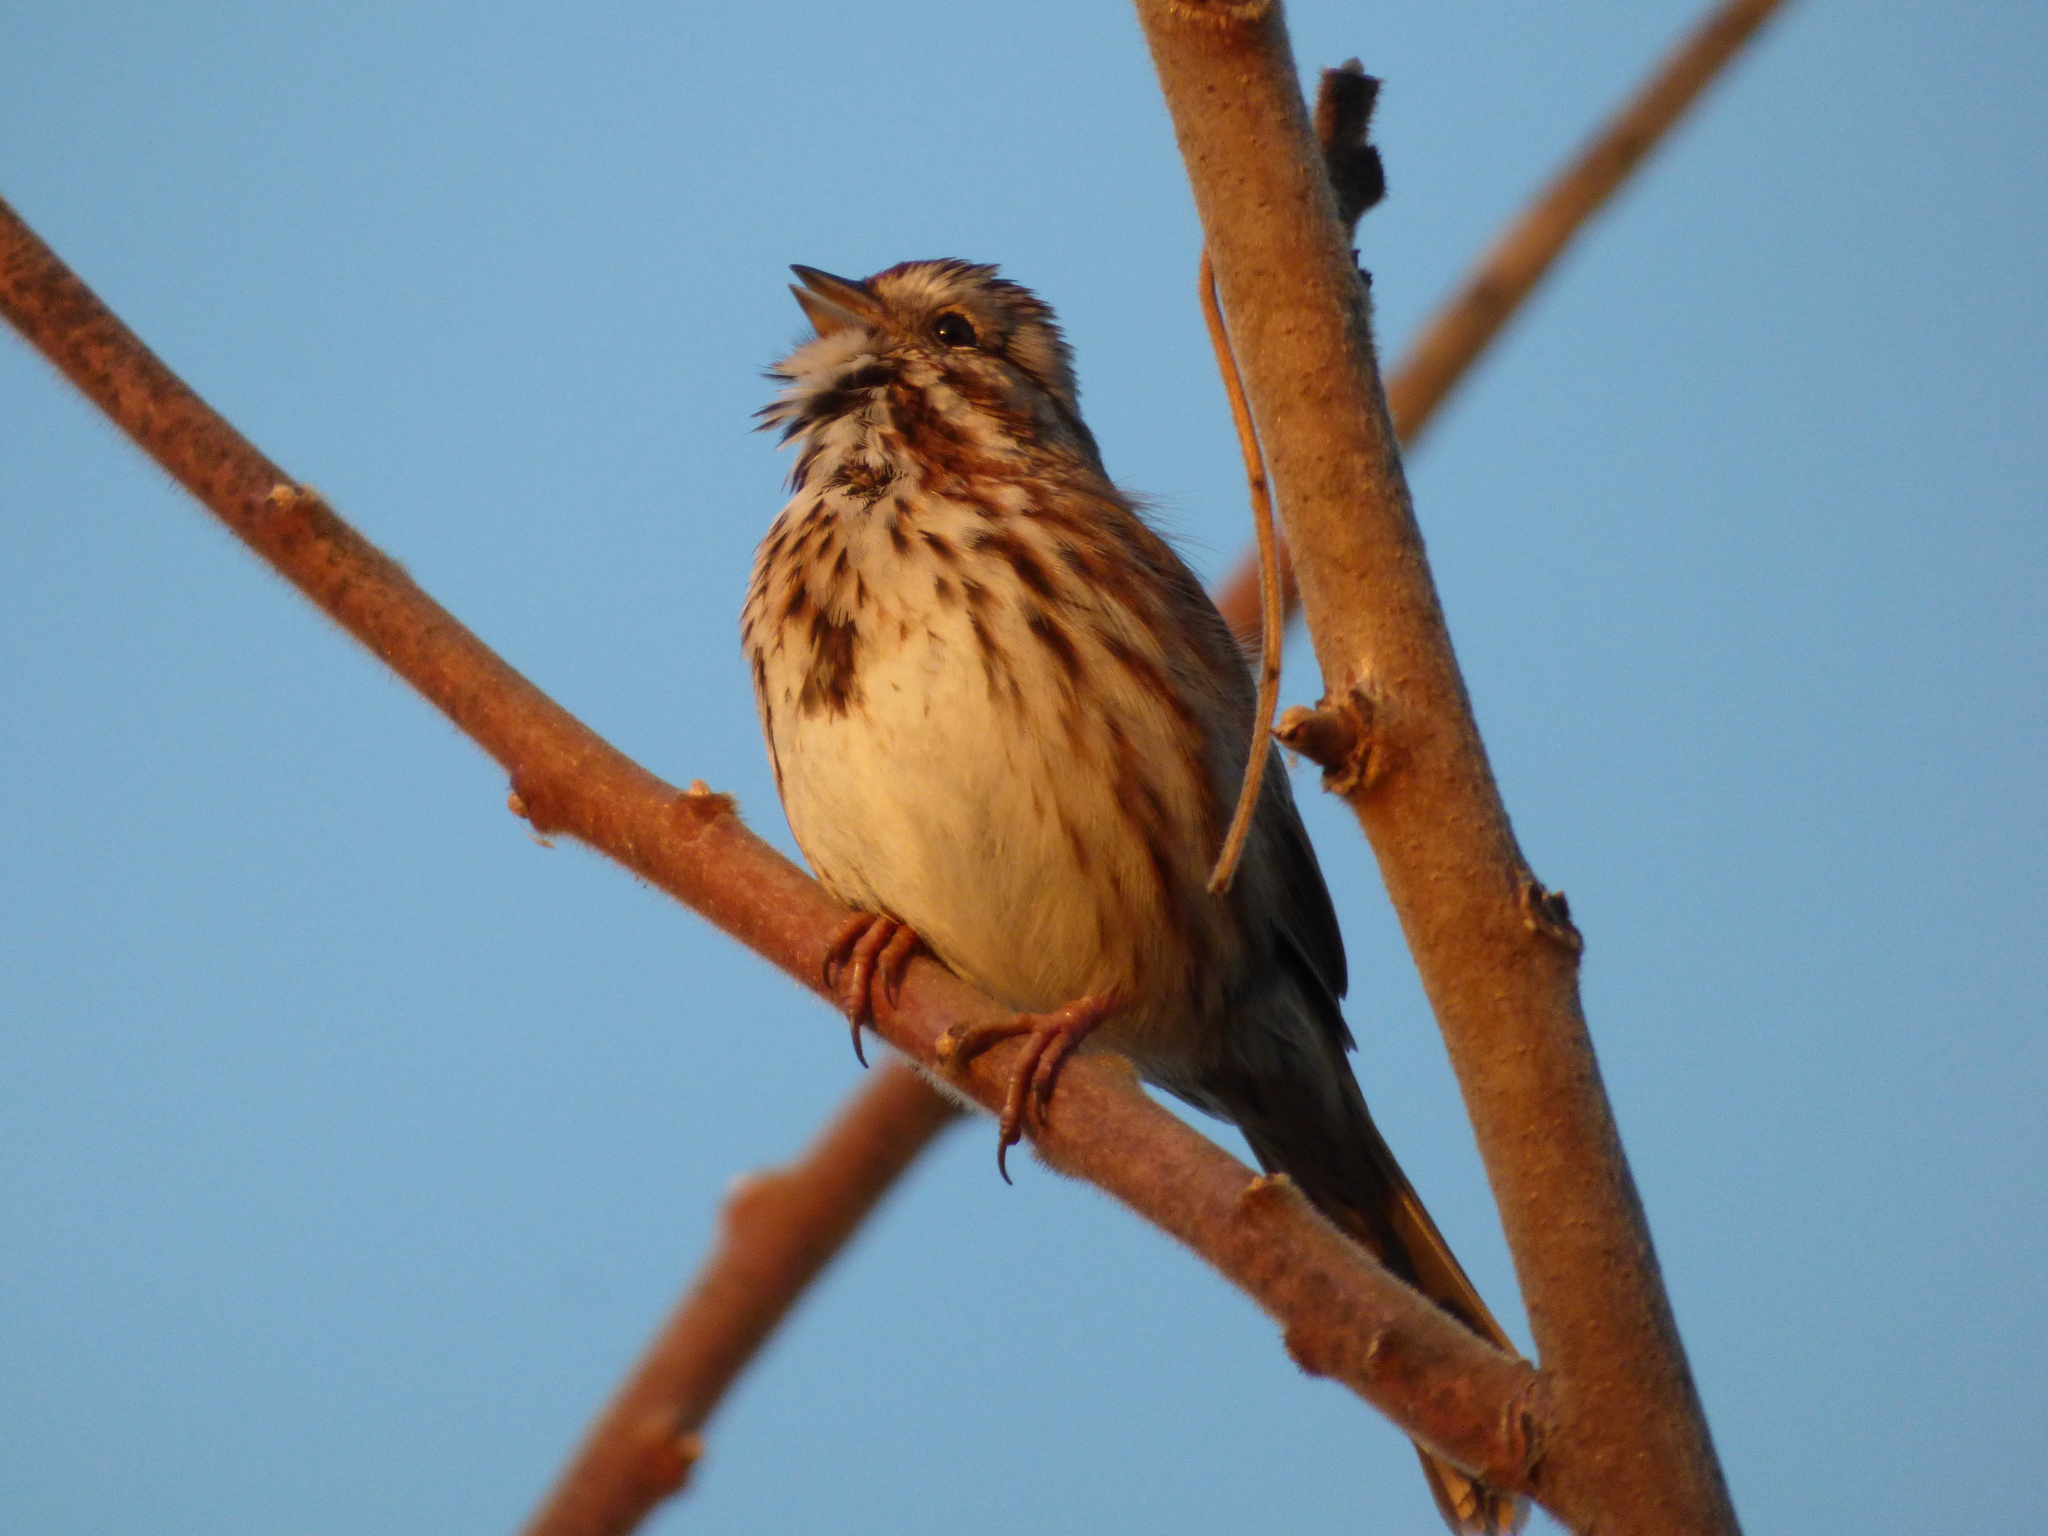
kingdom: Animalia
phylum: Chordata
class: Aves
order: Passeriformes
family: Passerellidae
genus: Melospiza
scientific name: Melospiza melodia
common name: Song sparrow
